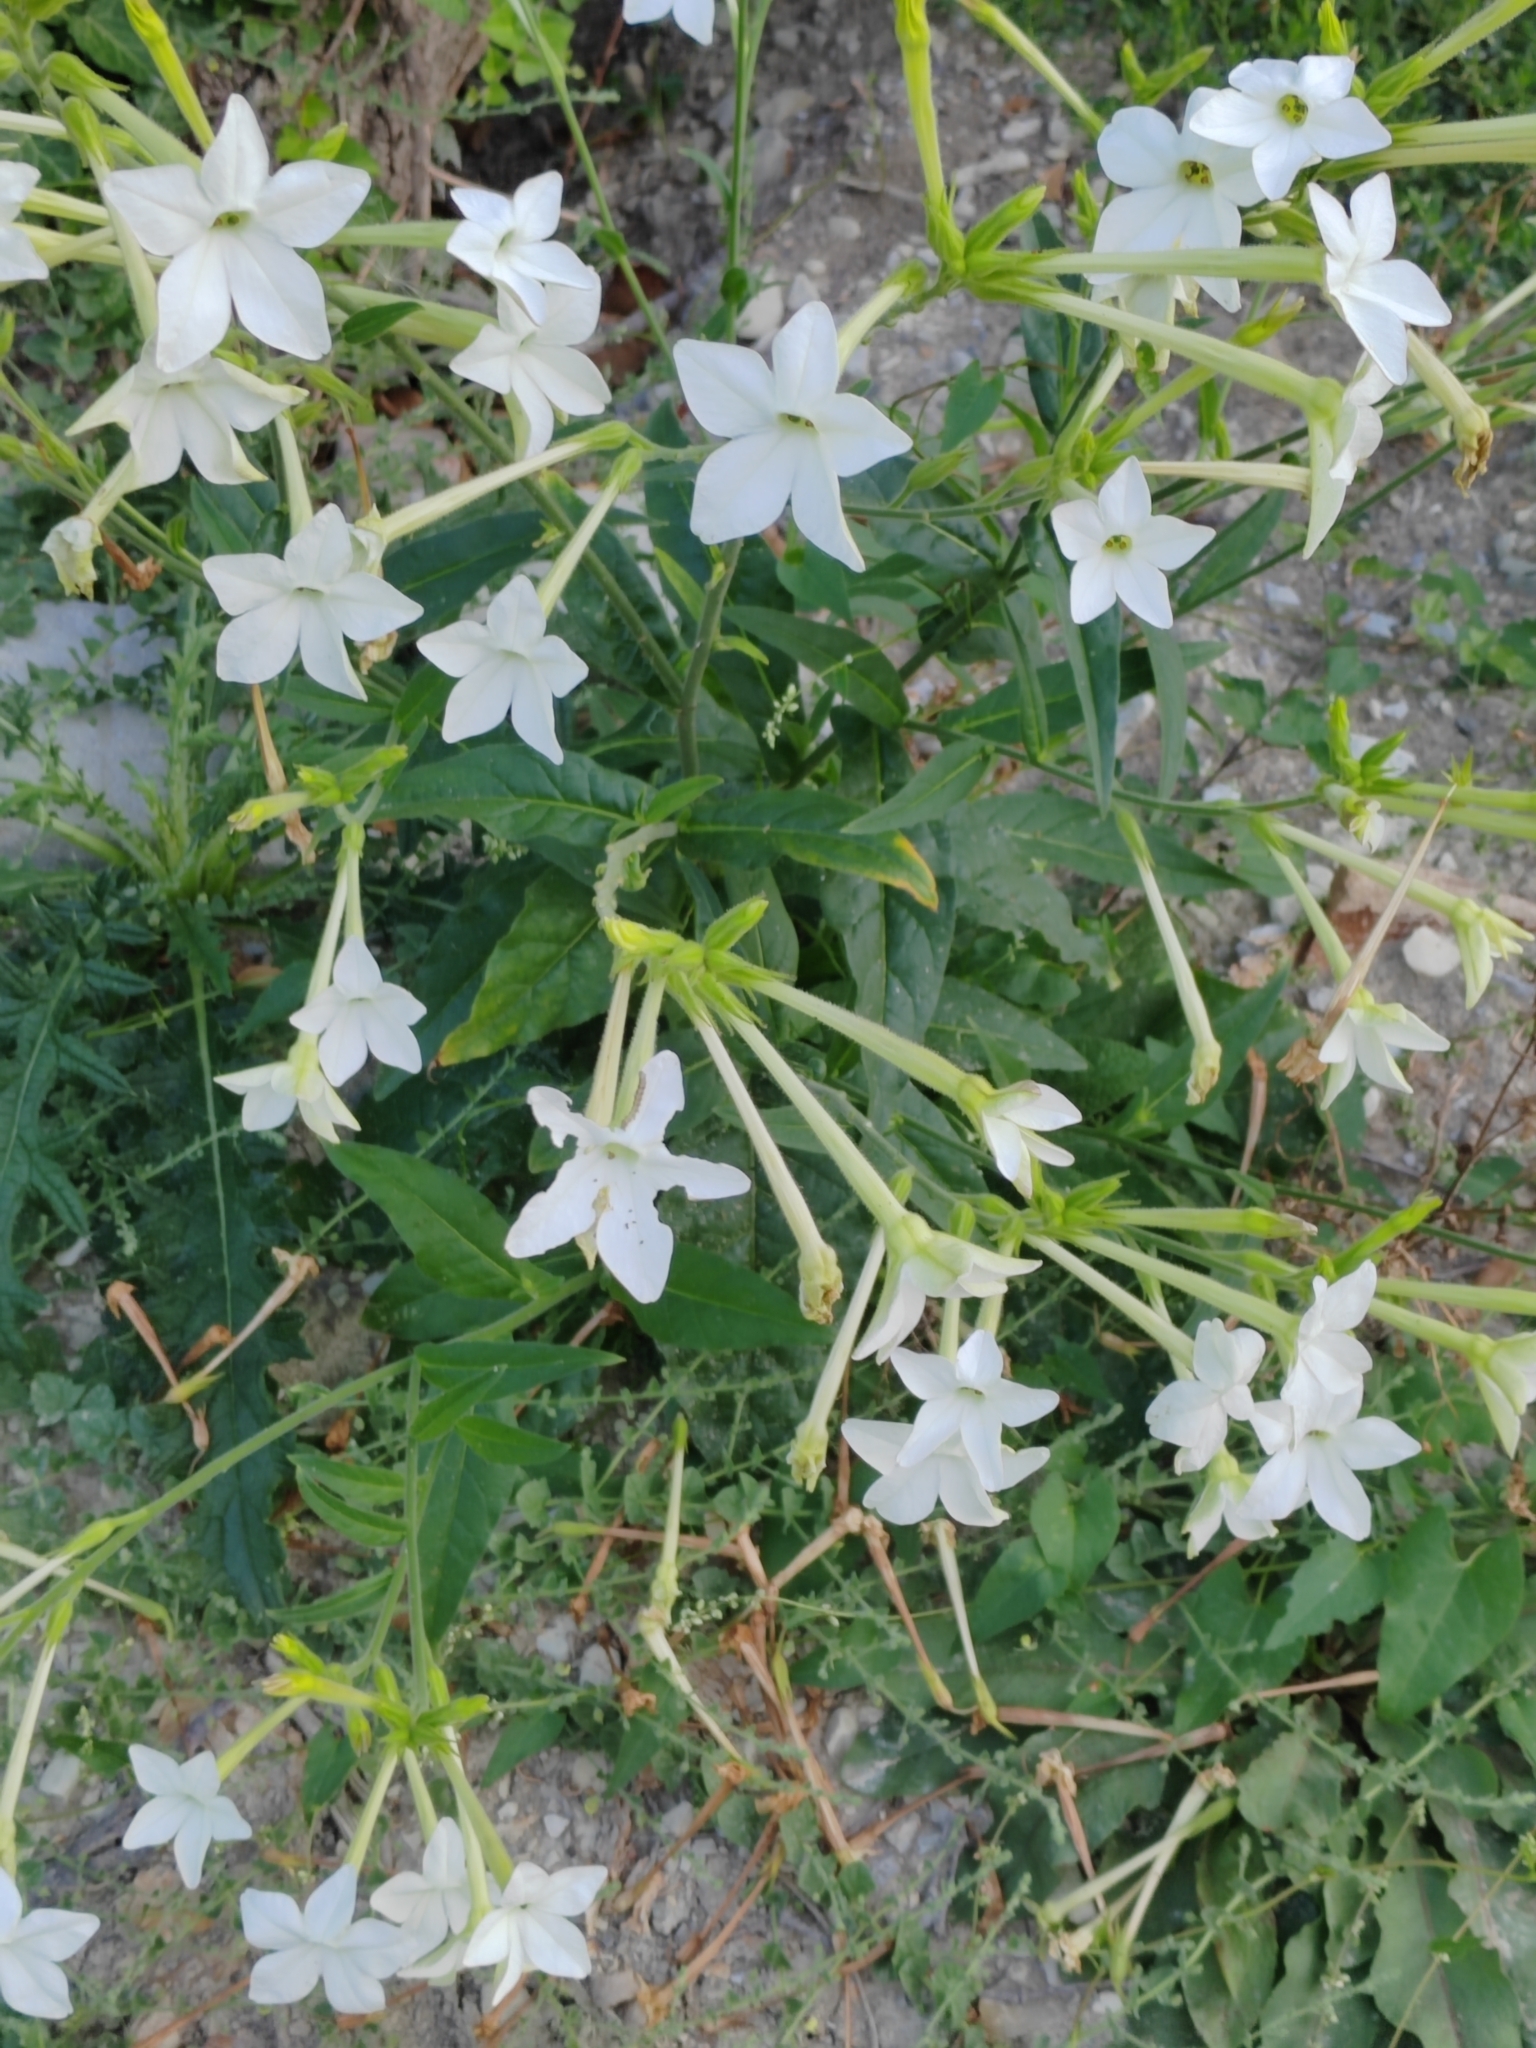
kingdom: Plantae
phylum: Tracheophyta
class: Magnoliopsida
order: Solanales
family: Solanaceae
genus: Nicotiana
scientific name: Nicotiana alata
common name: Jasmine tobacco
